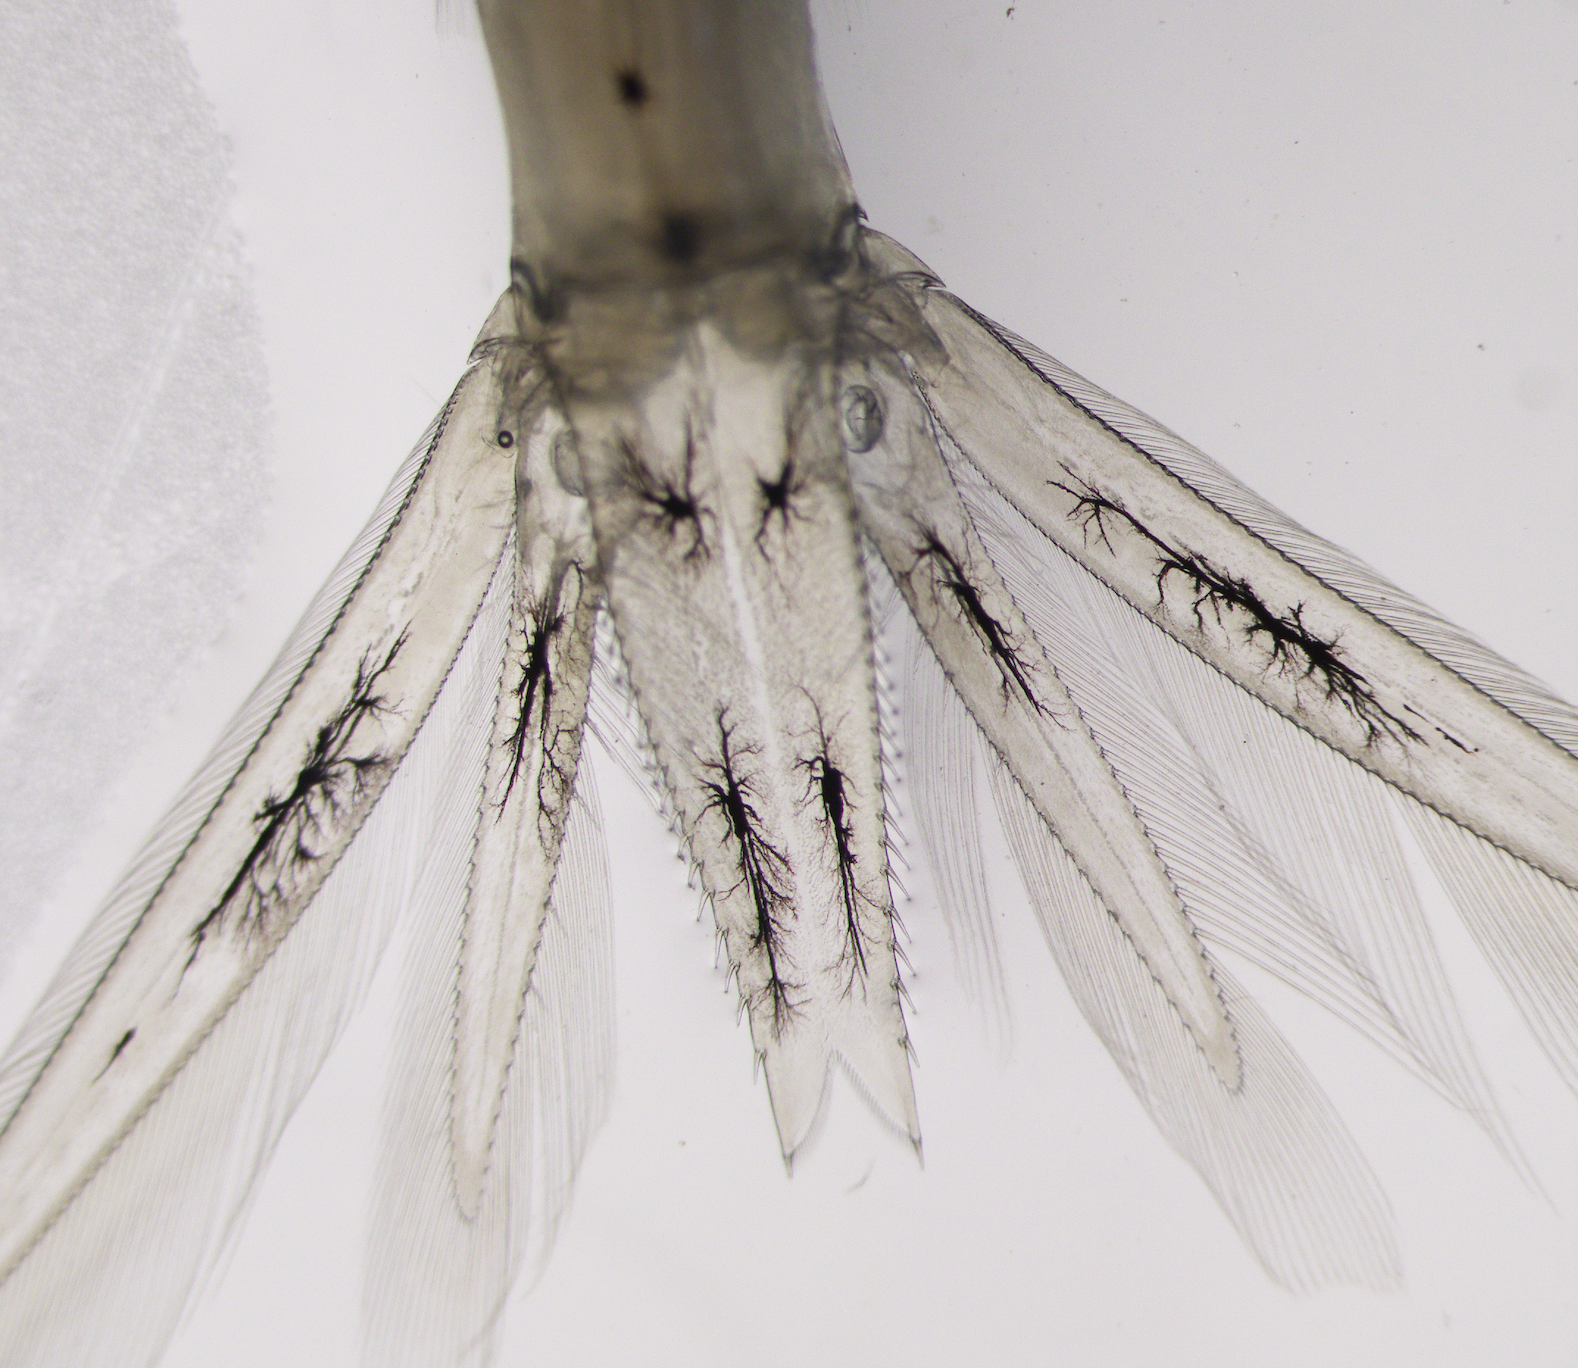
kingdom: Animalia
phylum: Arthropoda
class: Malacostraca
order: Mysida
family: Mysidae
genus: Mysis
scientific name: Mysis stenolepis
